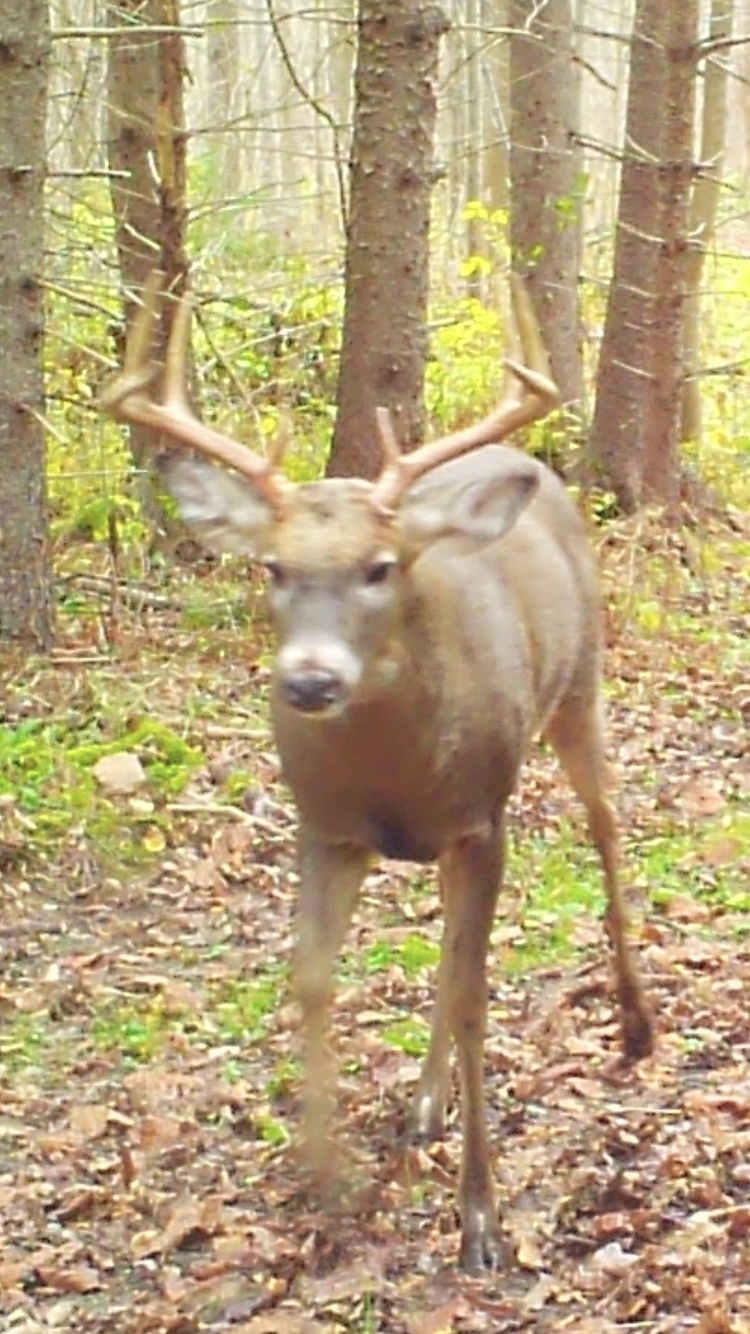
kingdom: Animalia
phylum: Chordata
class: Mammalia
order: Artiodactyla
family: Cervidae
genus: Odocoileus
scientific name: Odocoileus virginianus
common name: White-tailed deer
